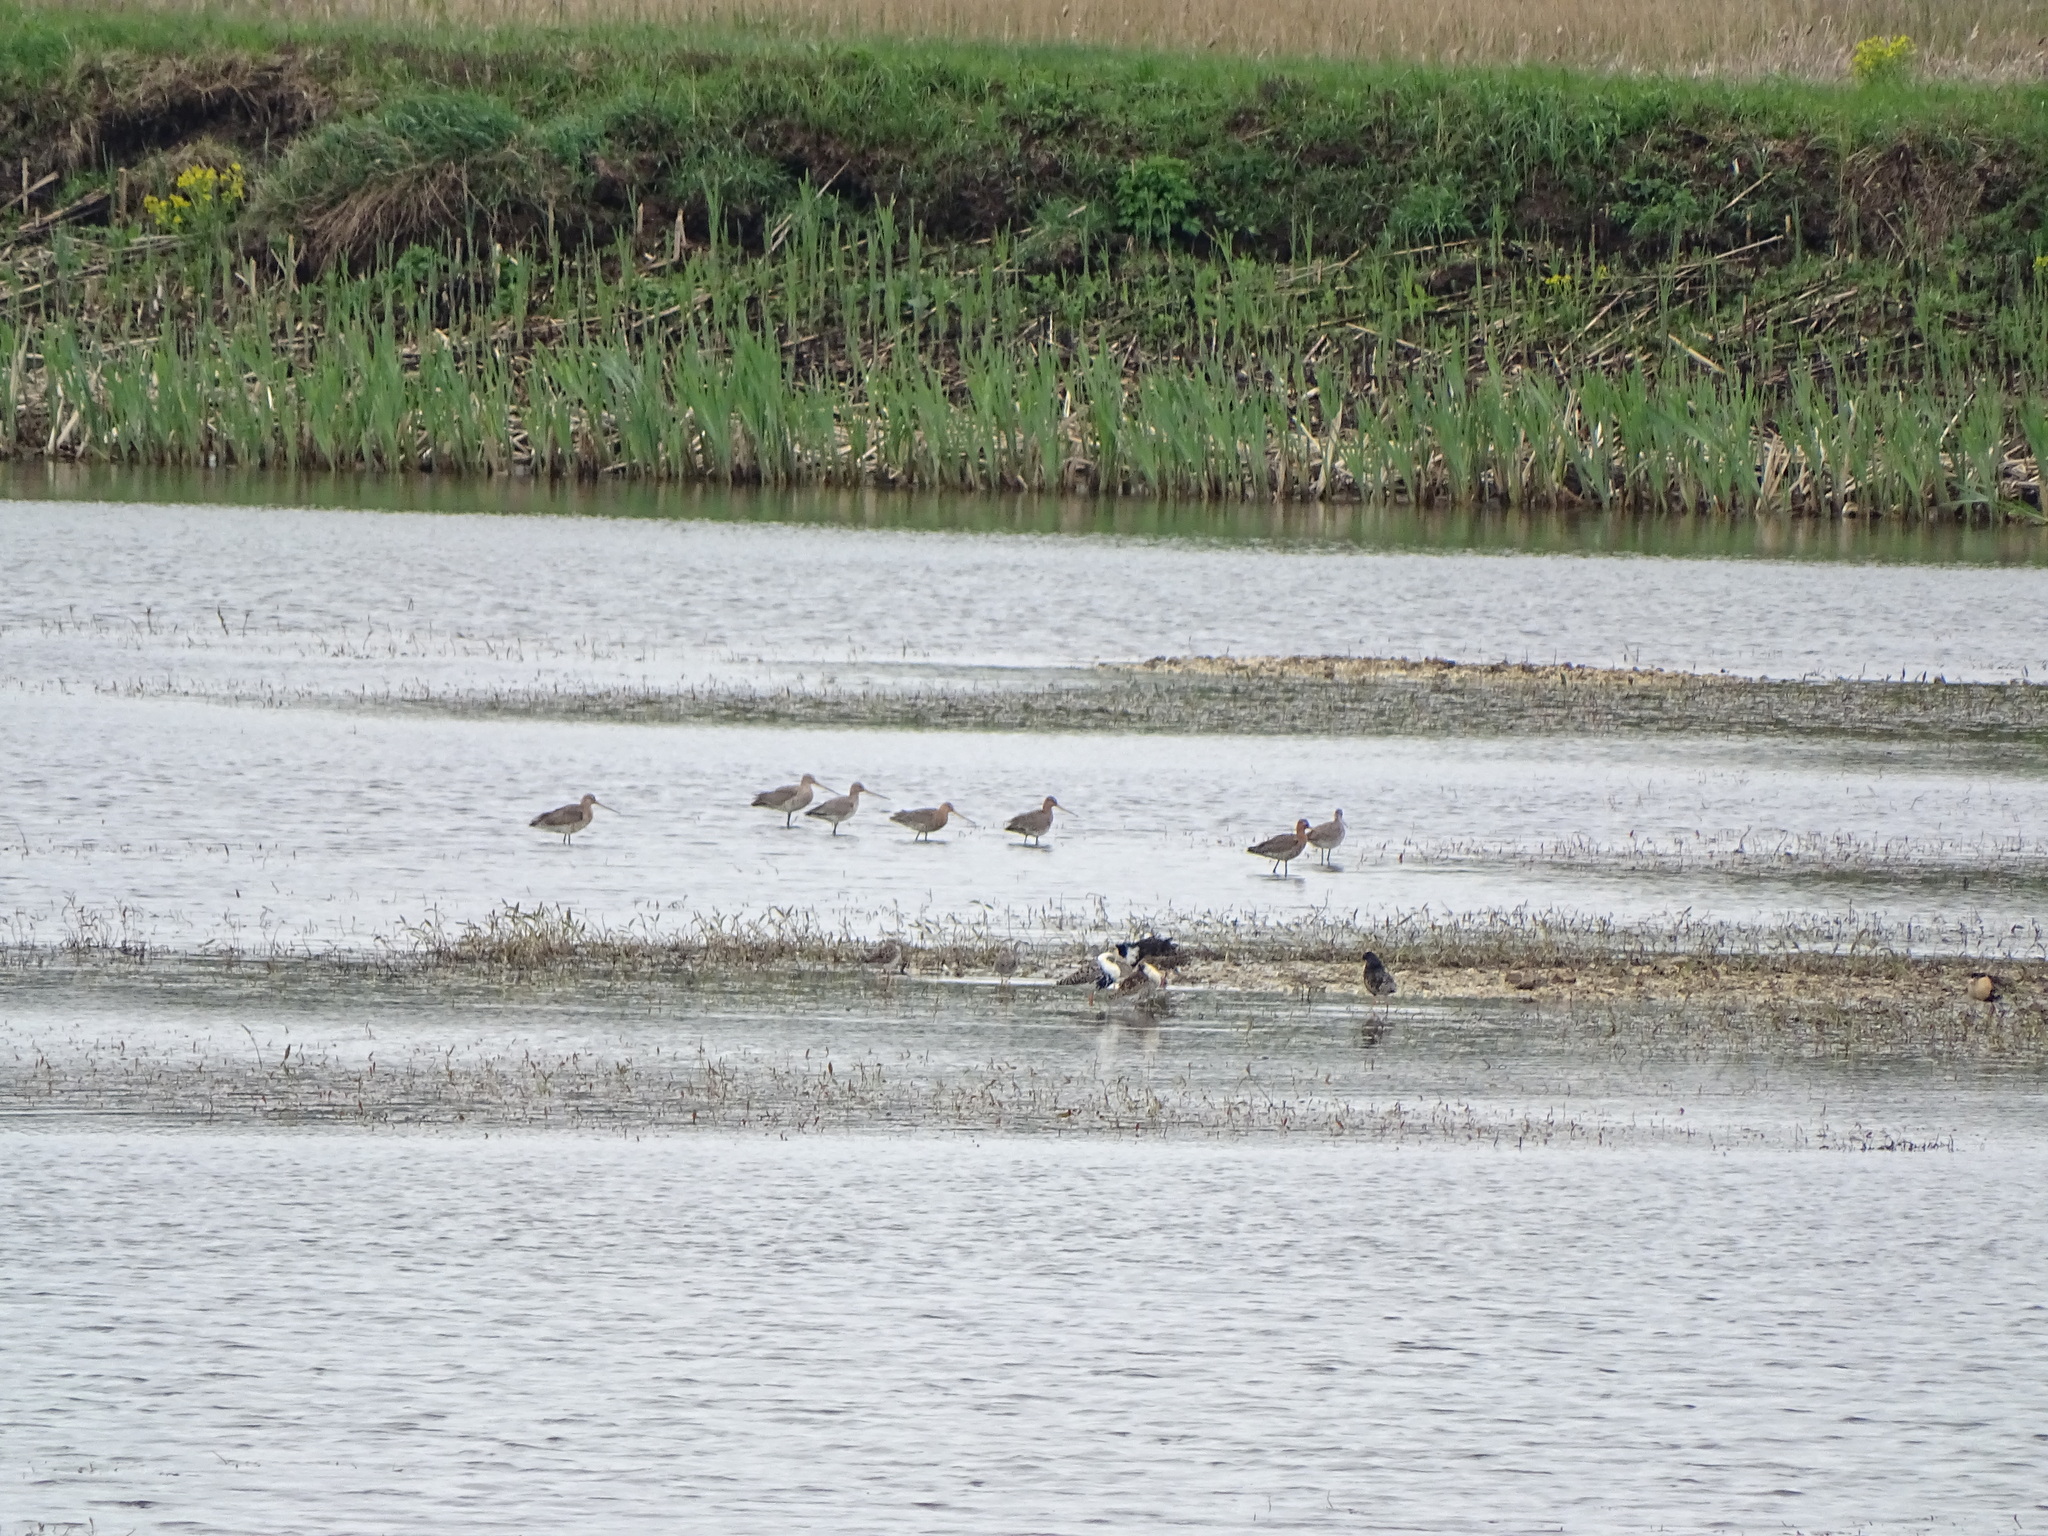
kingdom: Animalia
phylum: Chordata
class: Aves
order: Charadriiformes
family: Scolopacidae
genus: Limosa
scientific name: Limosa limosa
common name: Black-tailed godwit
